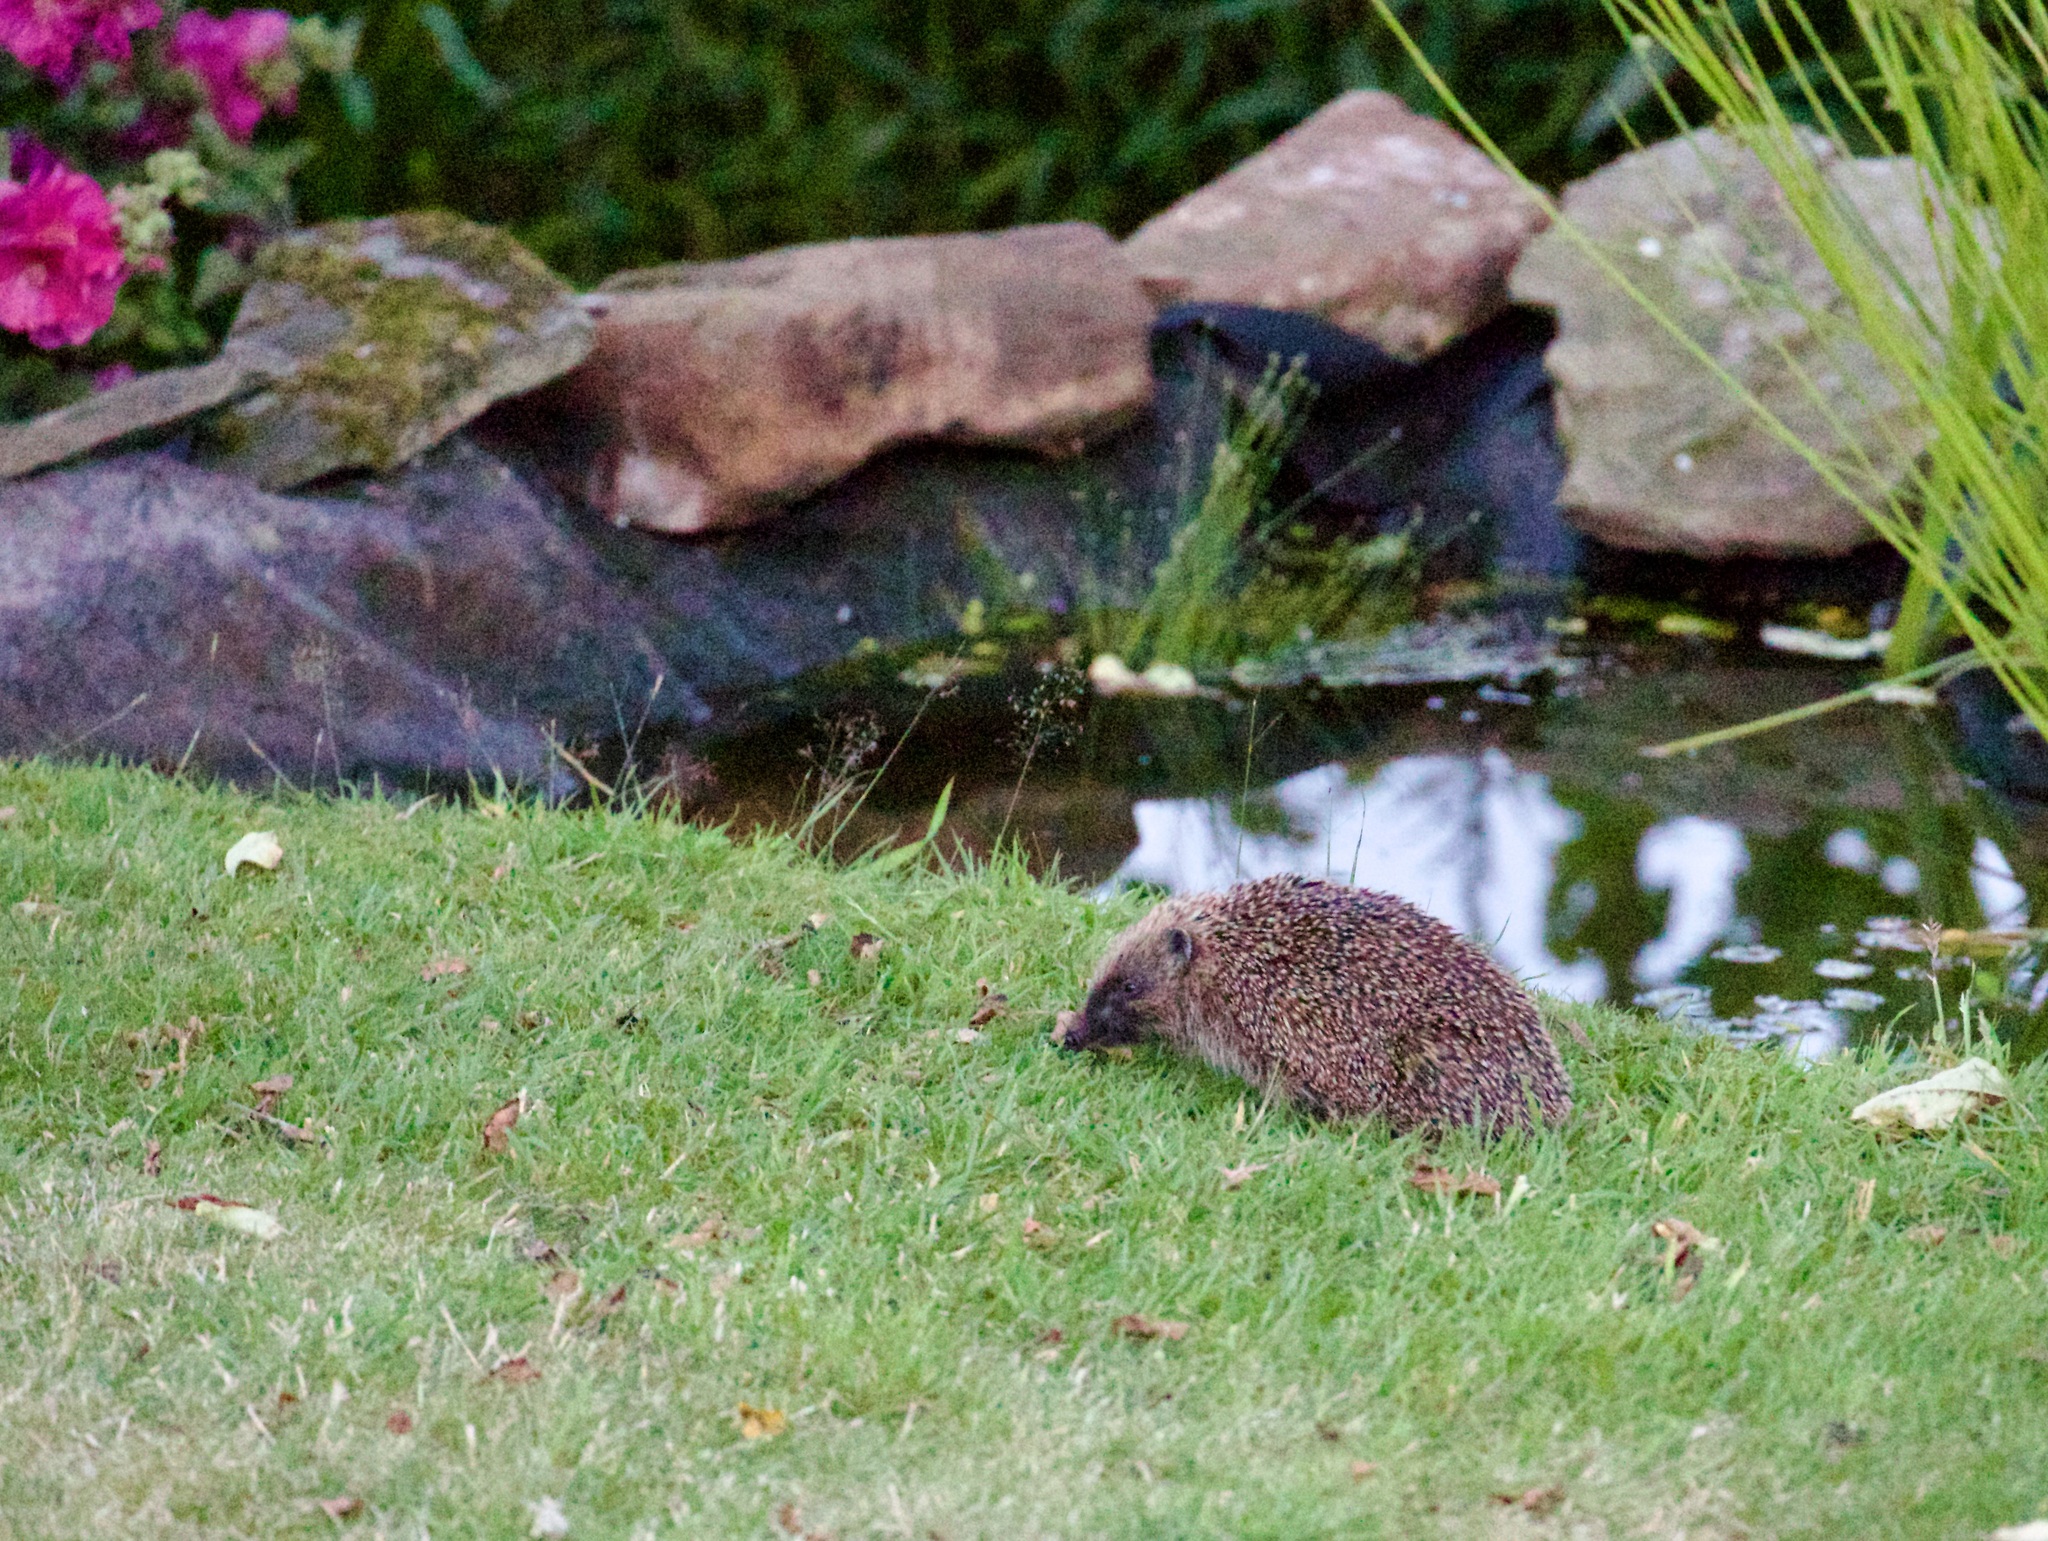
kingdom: Animalia
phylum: Chordata
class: Mammalia
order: Erinaceomorpha
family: Erinaceidae
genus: Erinaceus
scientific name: Erinaceus europaeus
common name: West european hedgehog
